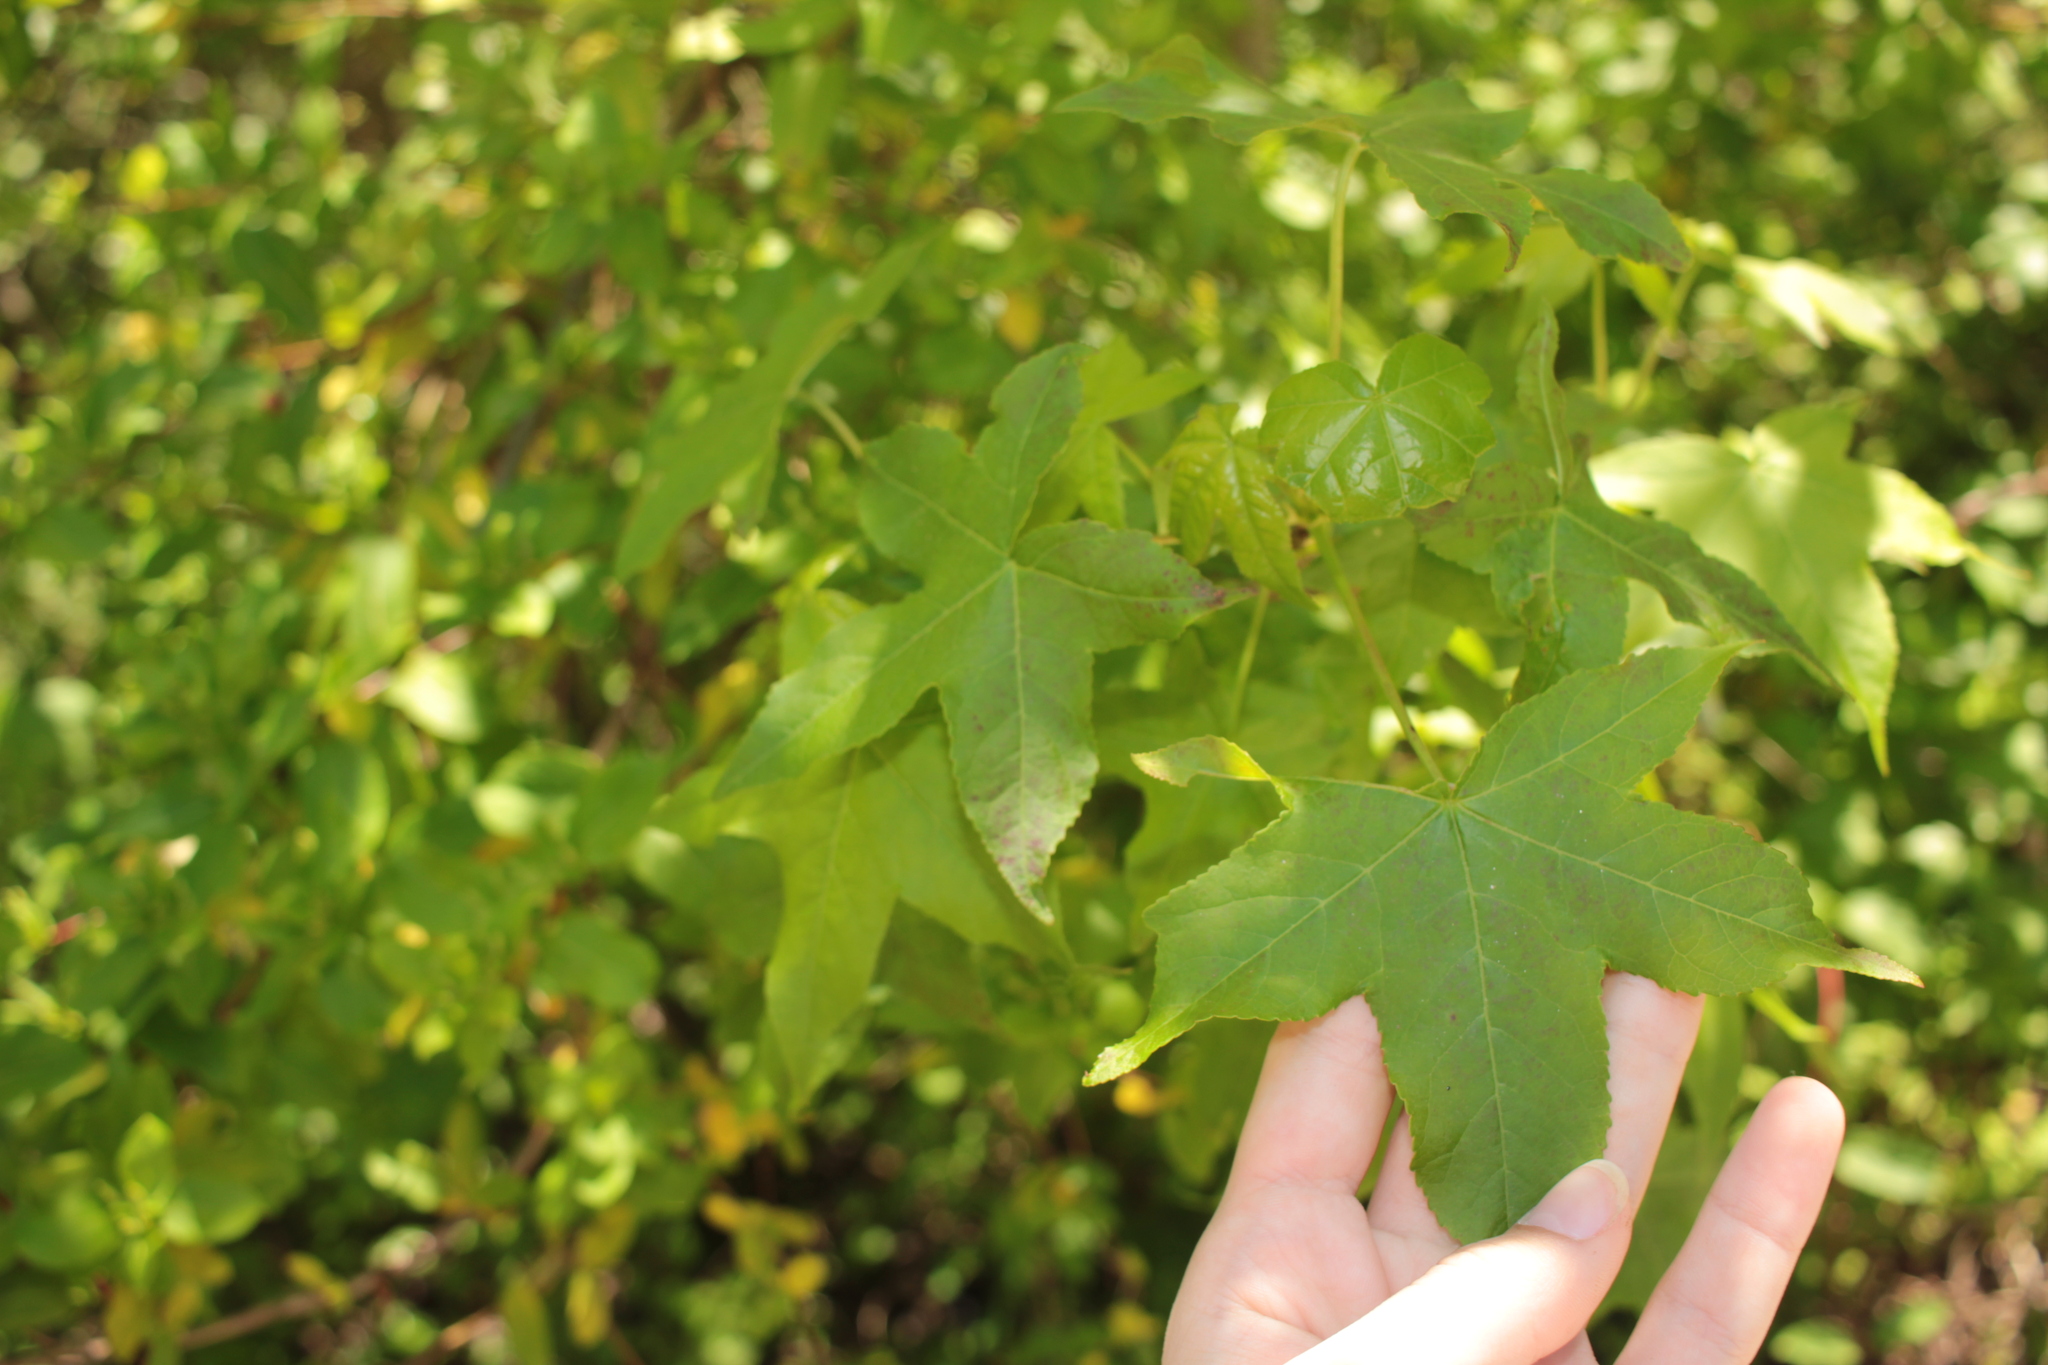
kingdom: Plantae
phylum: Tracheophyta
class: Magnoliopsida
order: Saxifragales
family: Altingiaceae
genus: Liquidambar
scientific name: Liquidambar styraciflua
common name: Sweet gum
